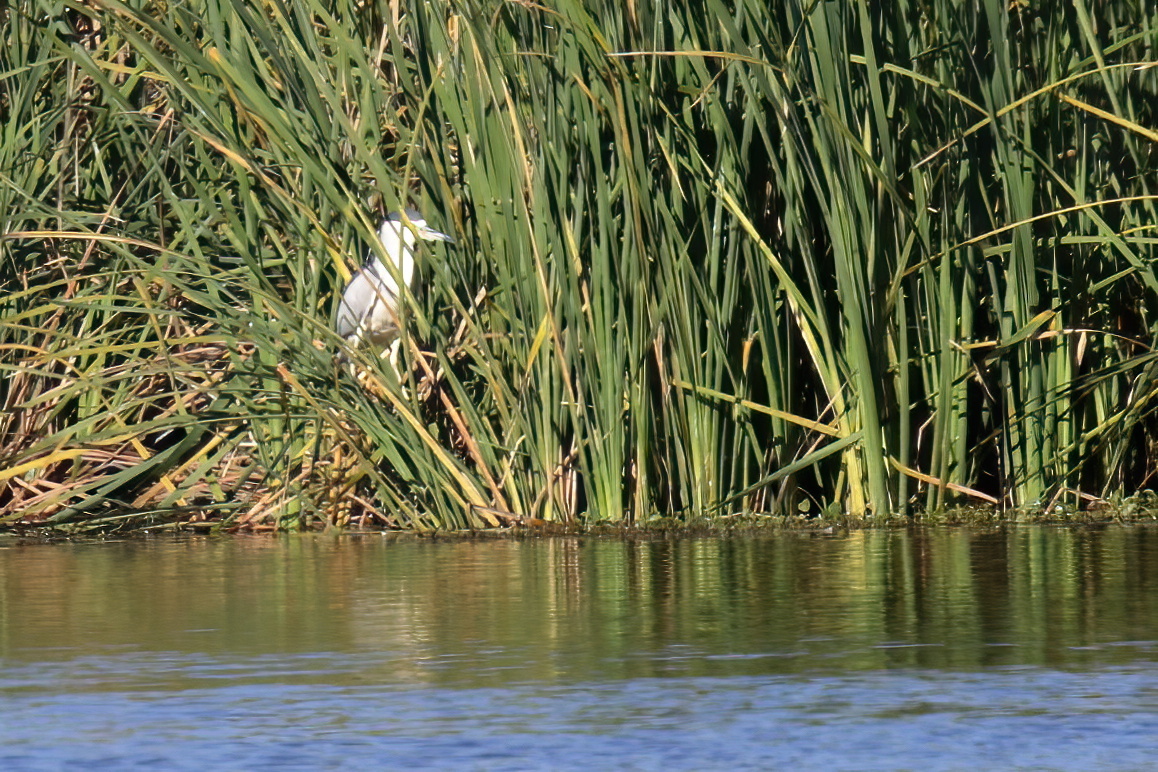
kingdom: Animalia
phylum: Chordata
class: Aves
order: Pelecaniformes
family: Ardeidae
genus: Nycticorax
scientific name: Nycticorax nycticorax
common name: Black-crowned night heron
